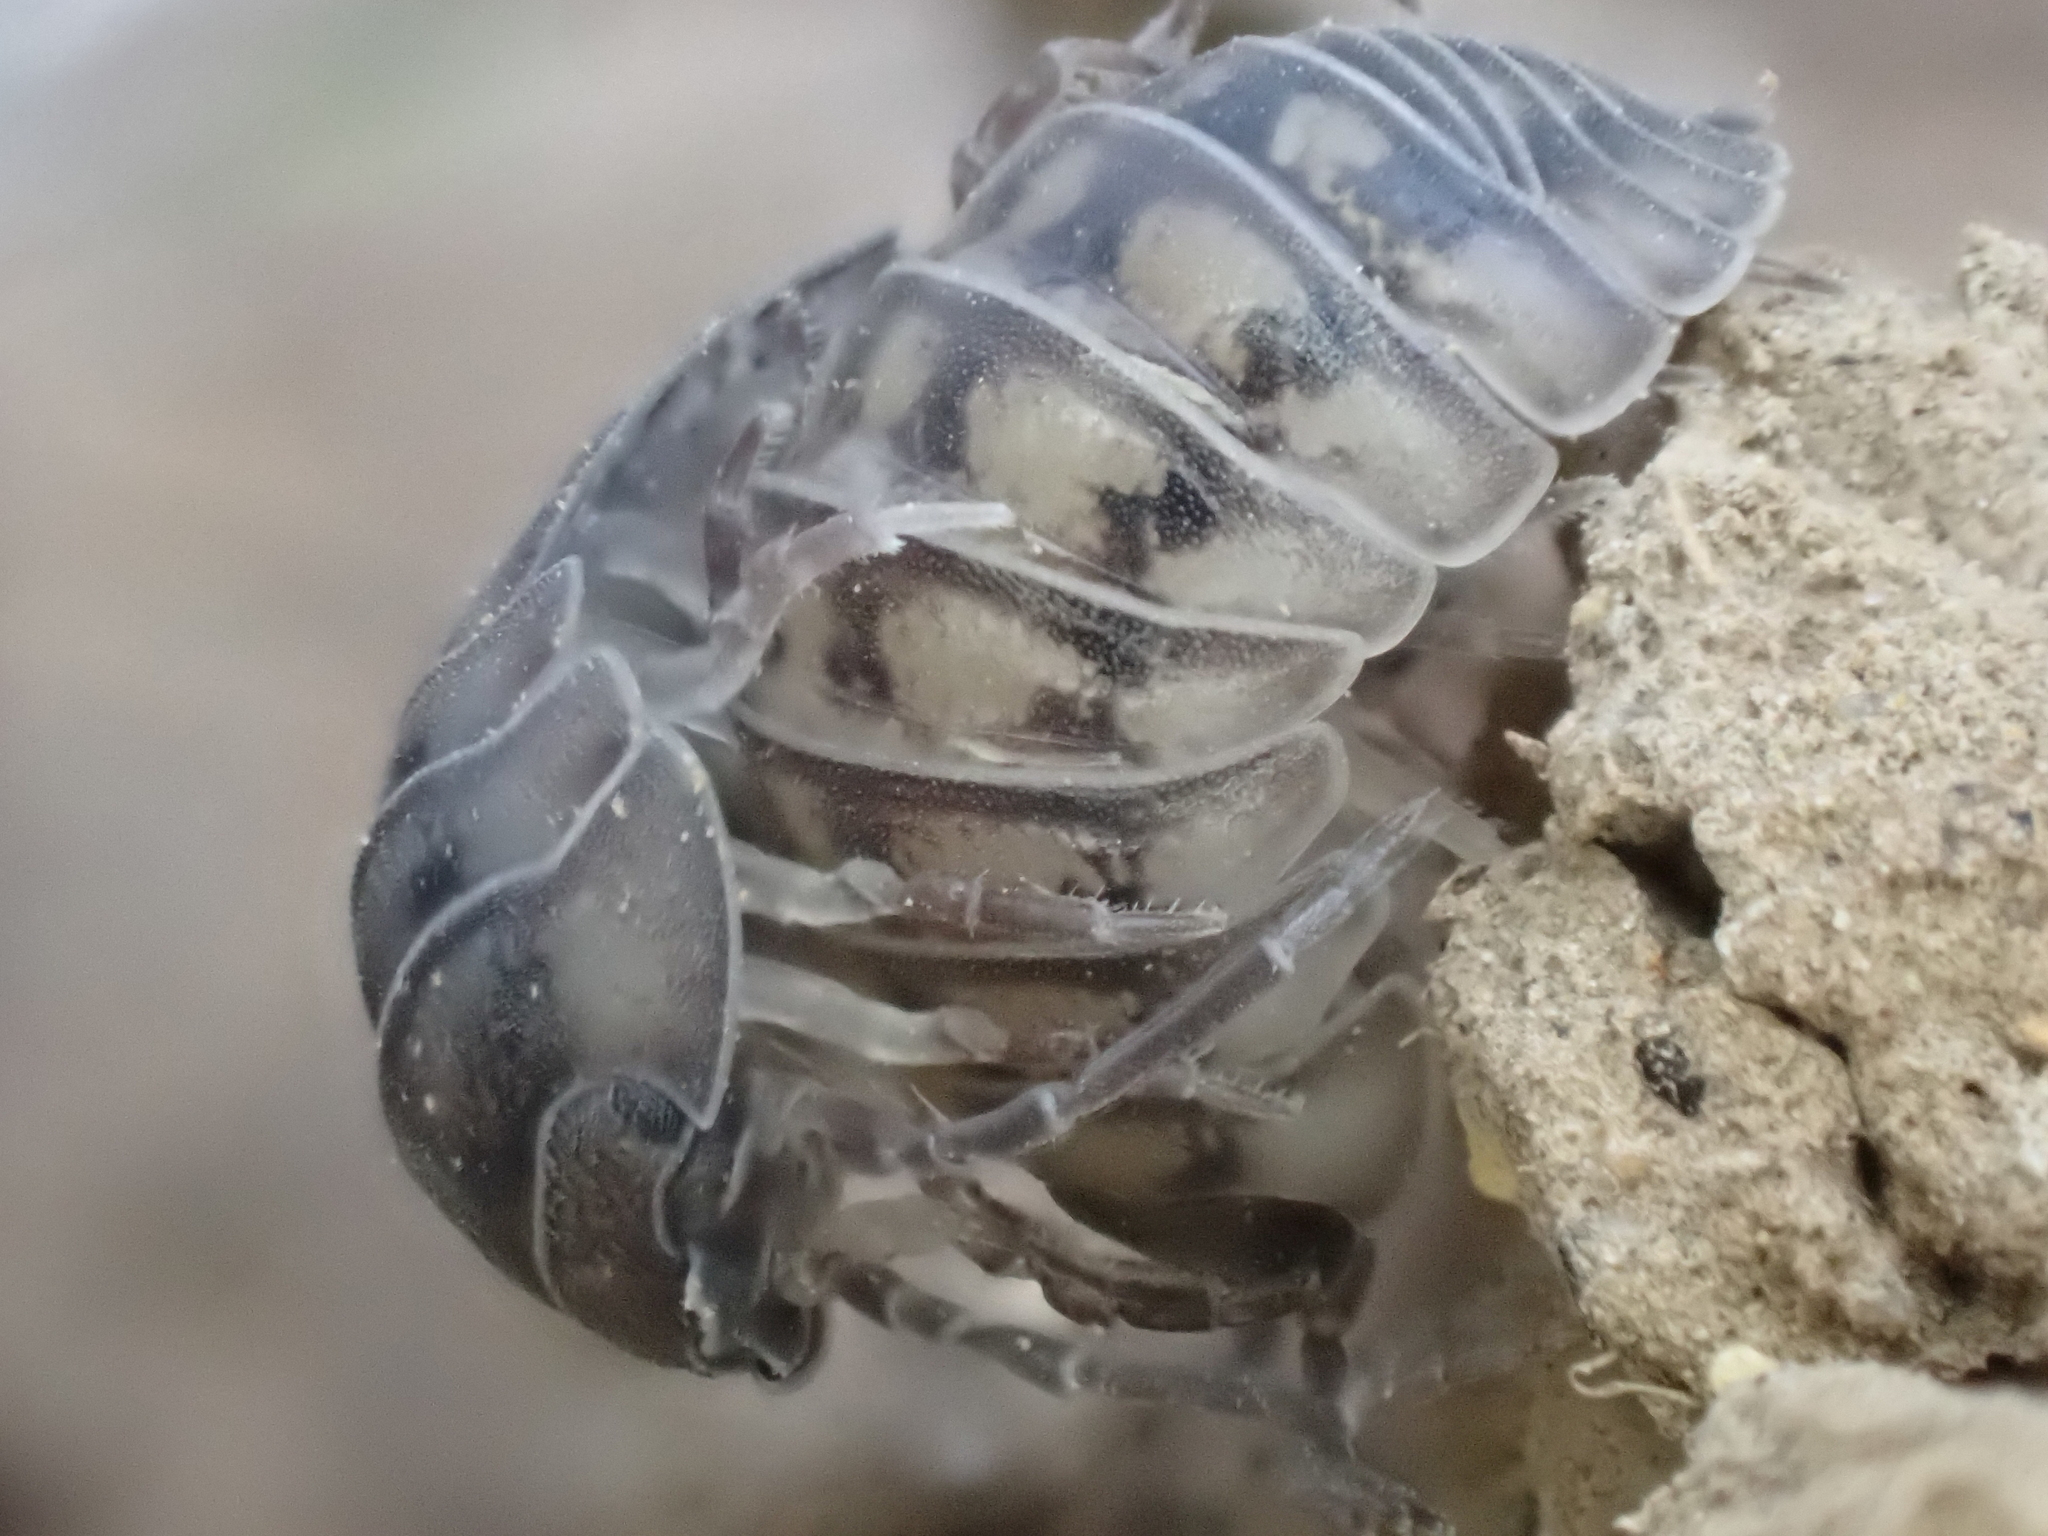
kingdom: Animalia
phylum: Arthropoda
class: Malacostraca
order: Isopoda
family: Armadillidiidae
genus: Armadillidium
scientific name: Armadillidium nasatum
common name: Isopod
